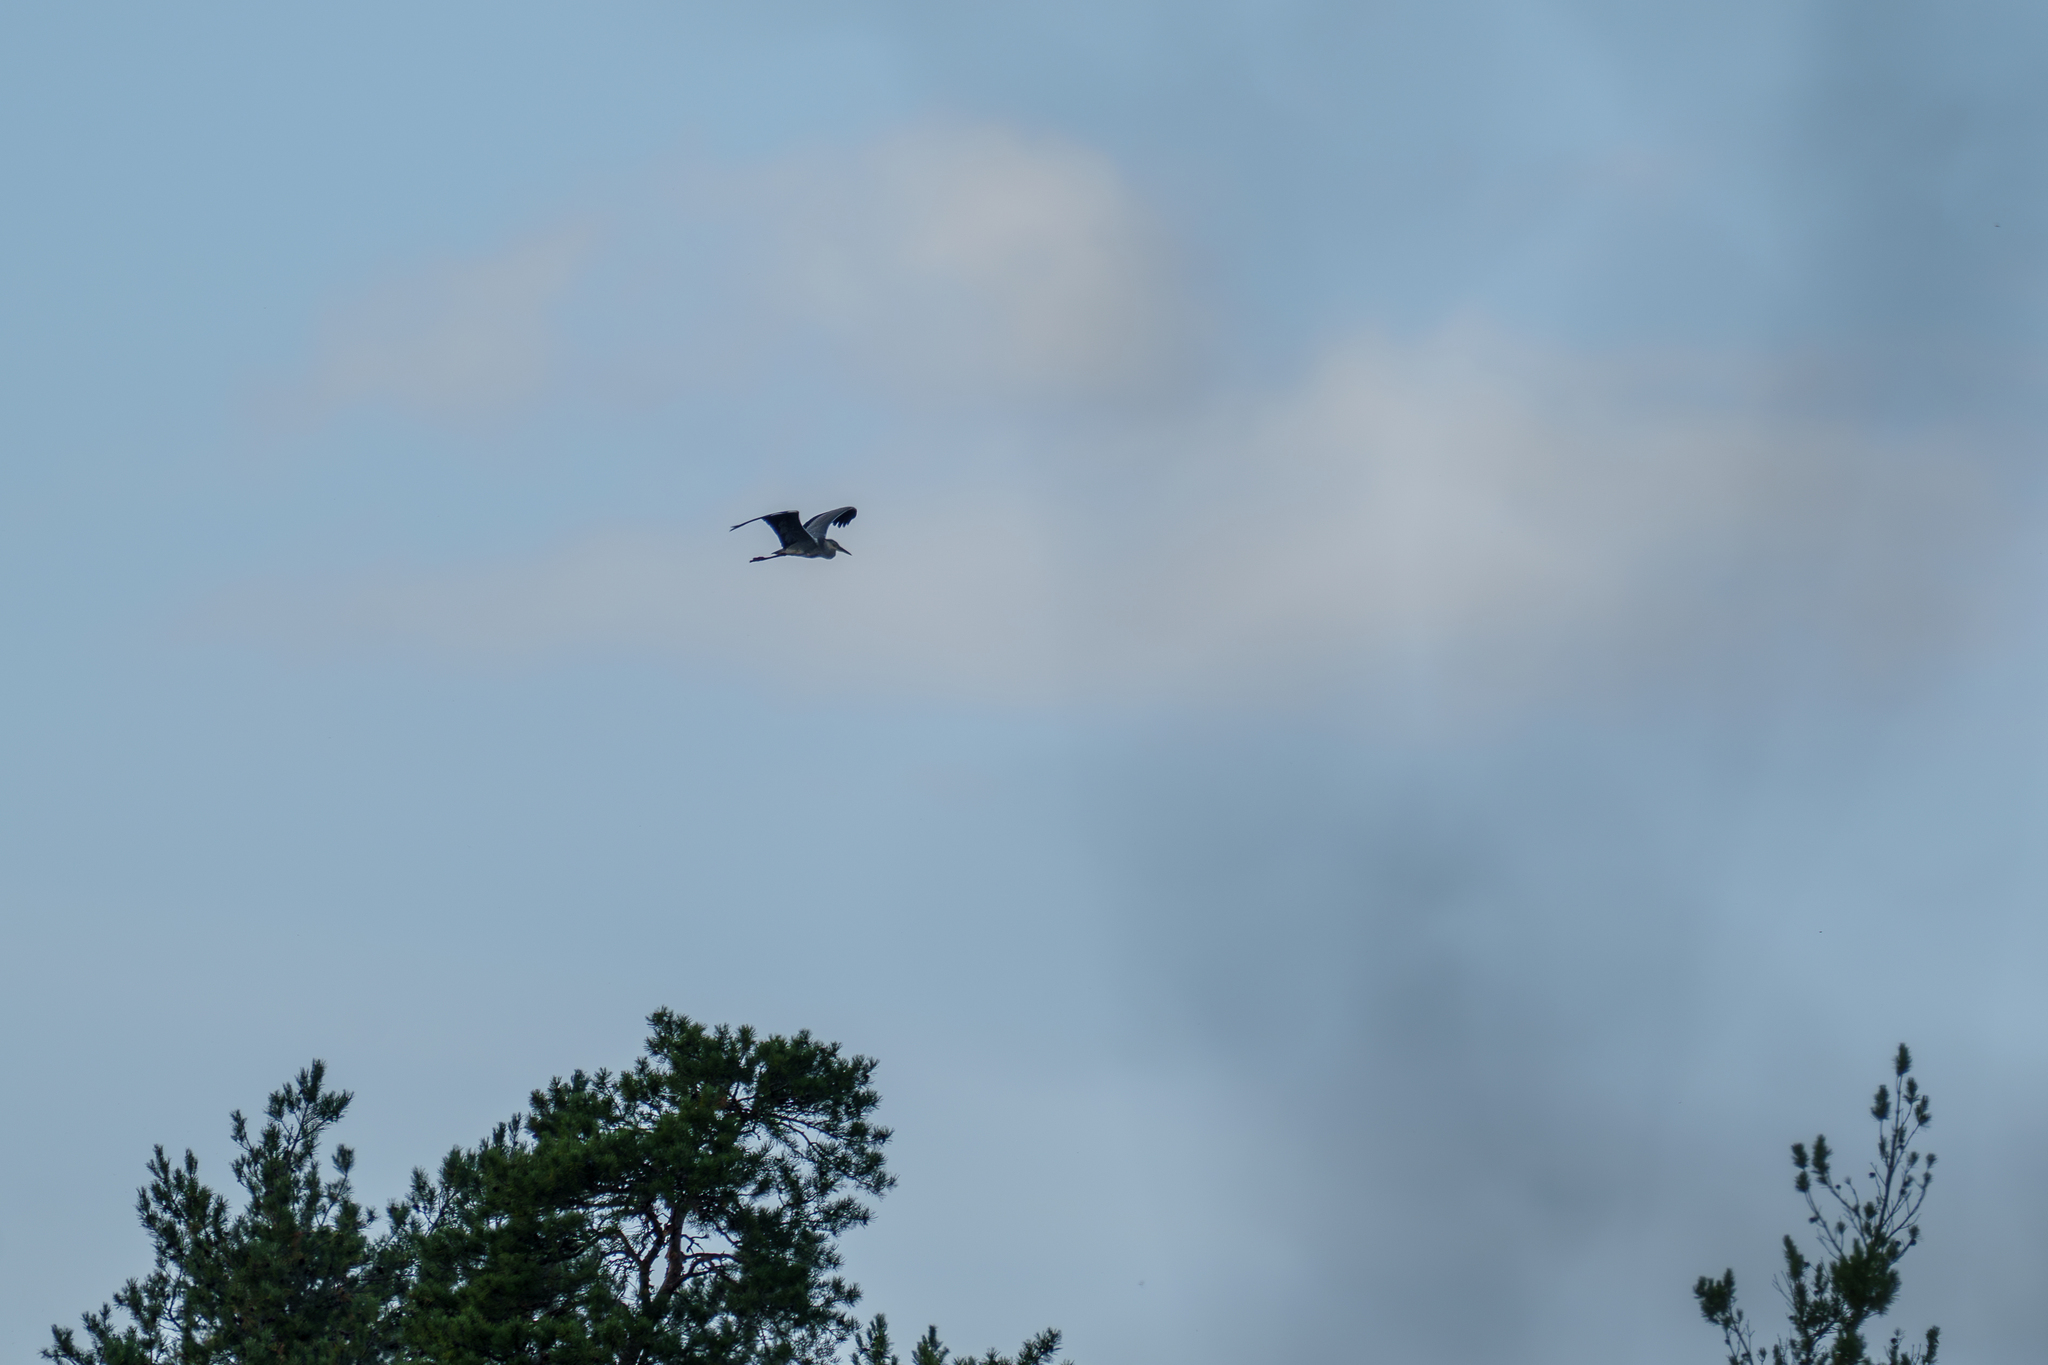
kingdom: Animalia
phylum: Chordata
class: Aves
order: Pelecaniformes
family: Ardeidae
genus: Ardea
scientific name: Ardea cinerea
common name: Grey heron
